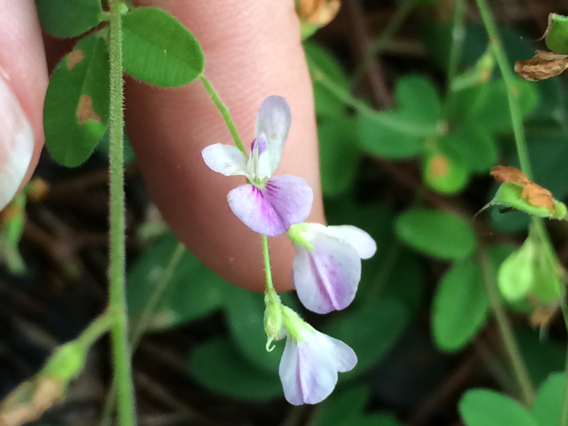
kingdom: Plantae
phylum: Tracheophyta
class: Magnoliopsida
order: Fabales
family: Fabaceae
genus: Lespedeza
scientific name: Lespedeza procumbens
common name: Downy trailing bush-clover
